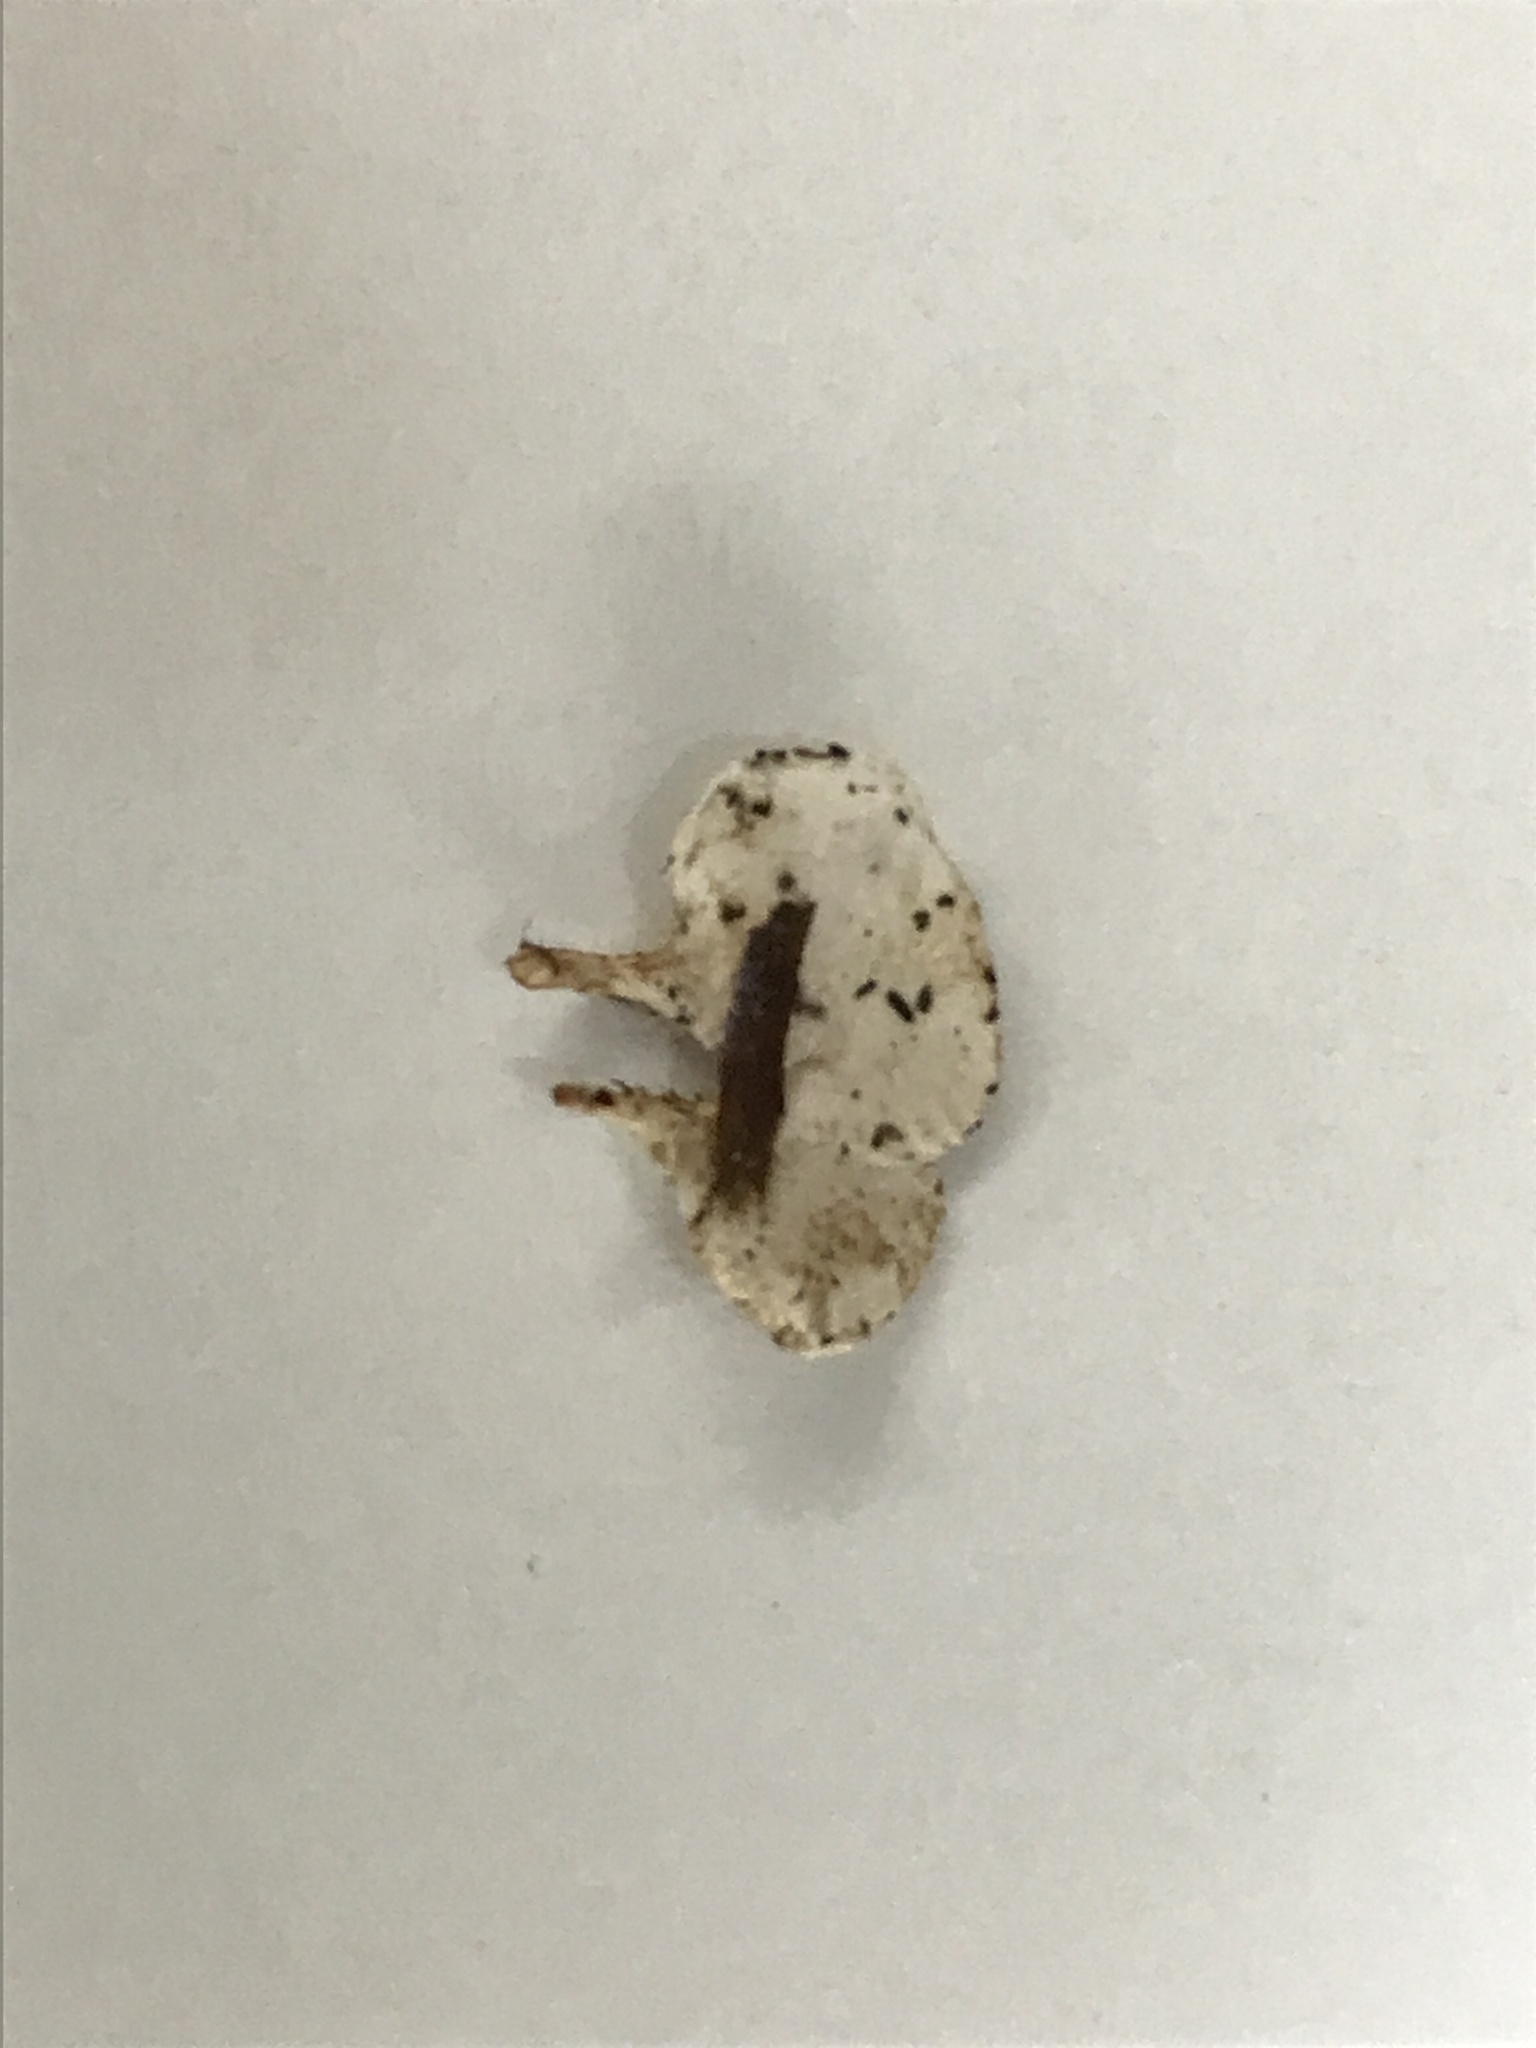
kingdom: Fungi
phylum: Basidiomycota
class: Agaricomycetes
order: Gomphales
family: Clavariadelphaceae
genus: Beenakia
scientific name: Beenakia dacostae
